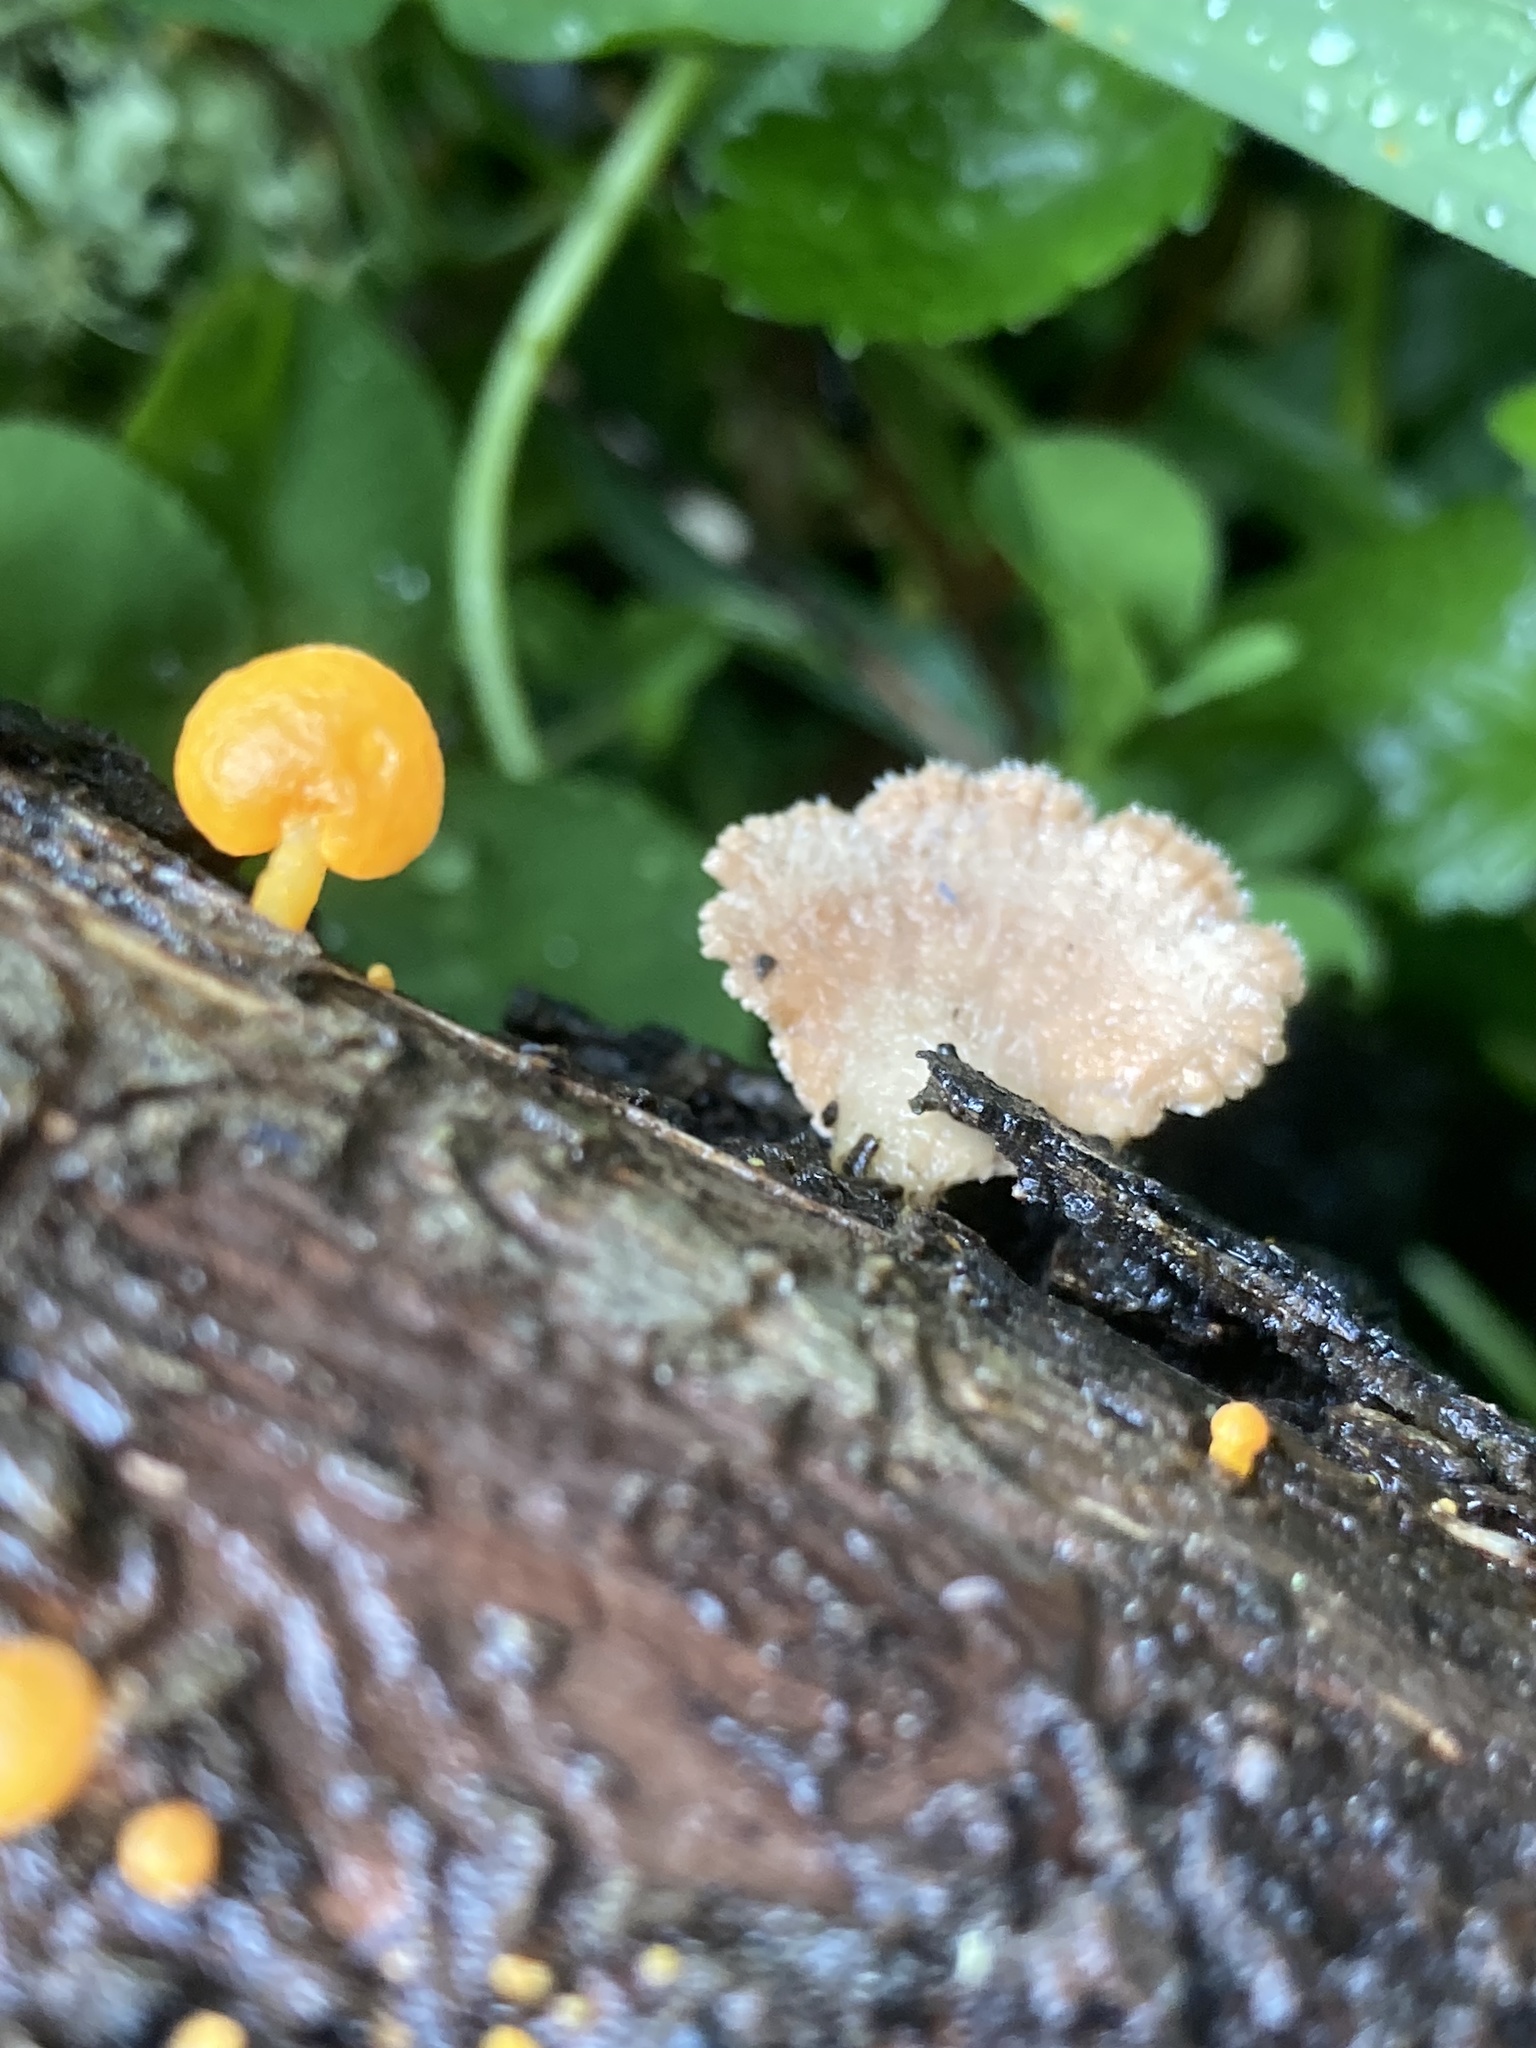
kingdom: Fungi
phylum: Basidiomycota
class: Agaricomycetes
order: Agaricales
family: Schizophyllaceae
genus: Schizophyllum
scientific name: Schizophyllum commune
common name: Common porecrust
